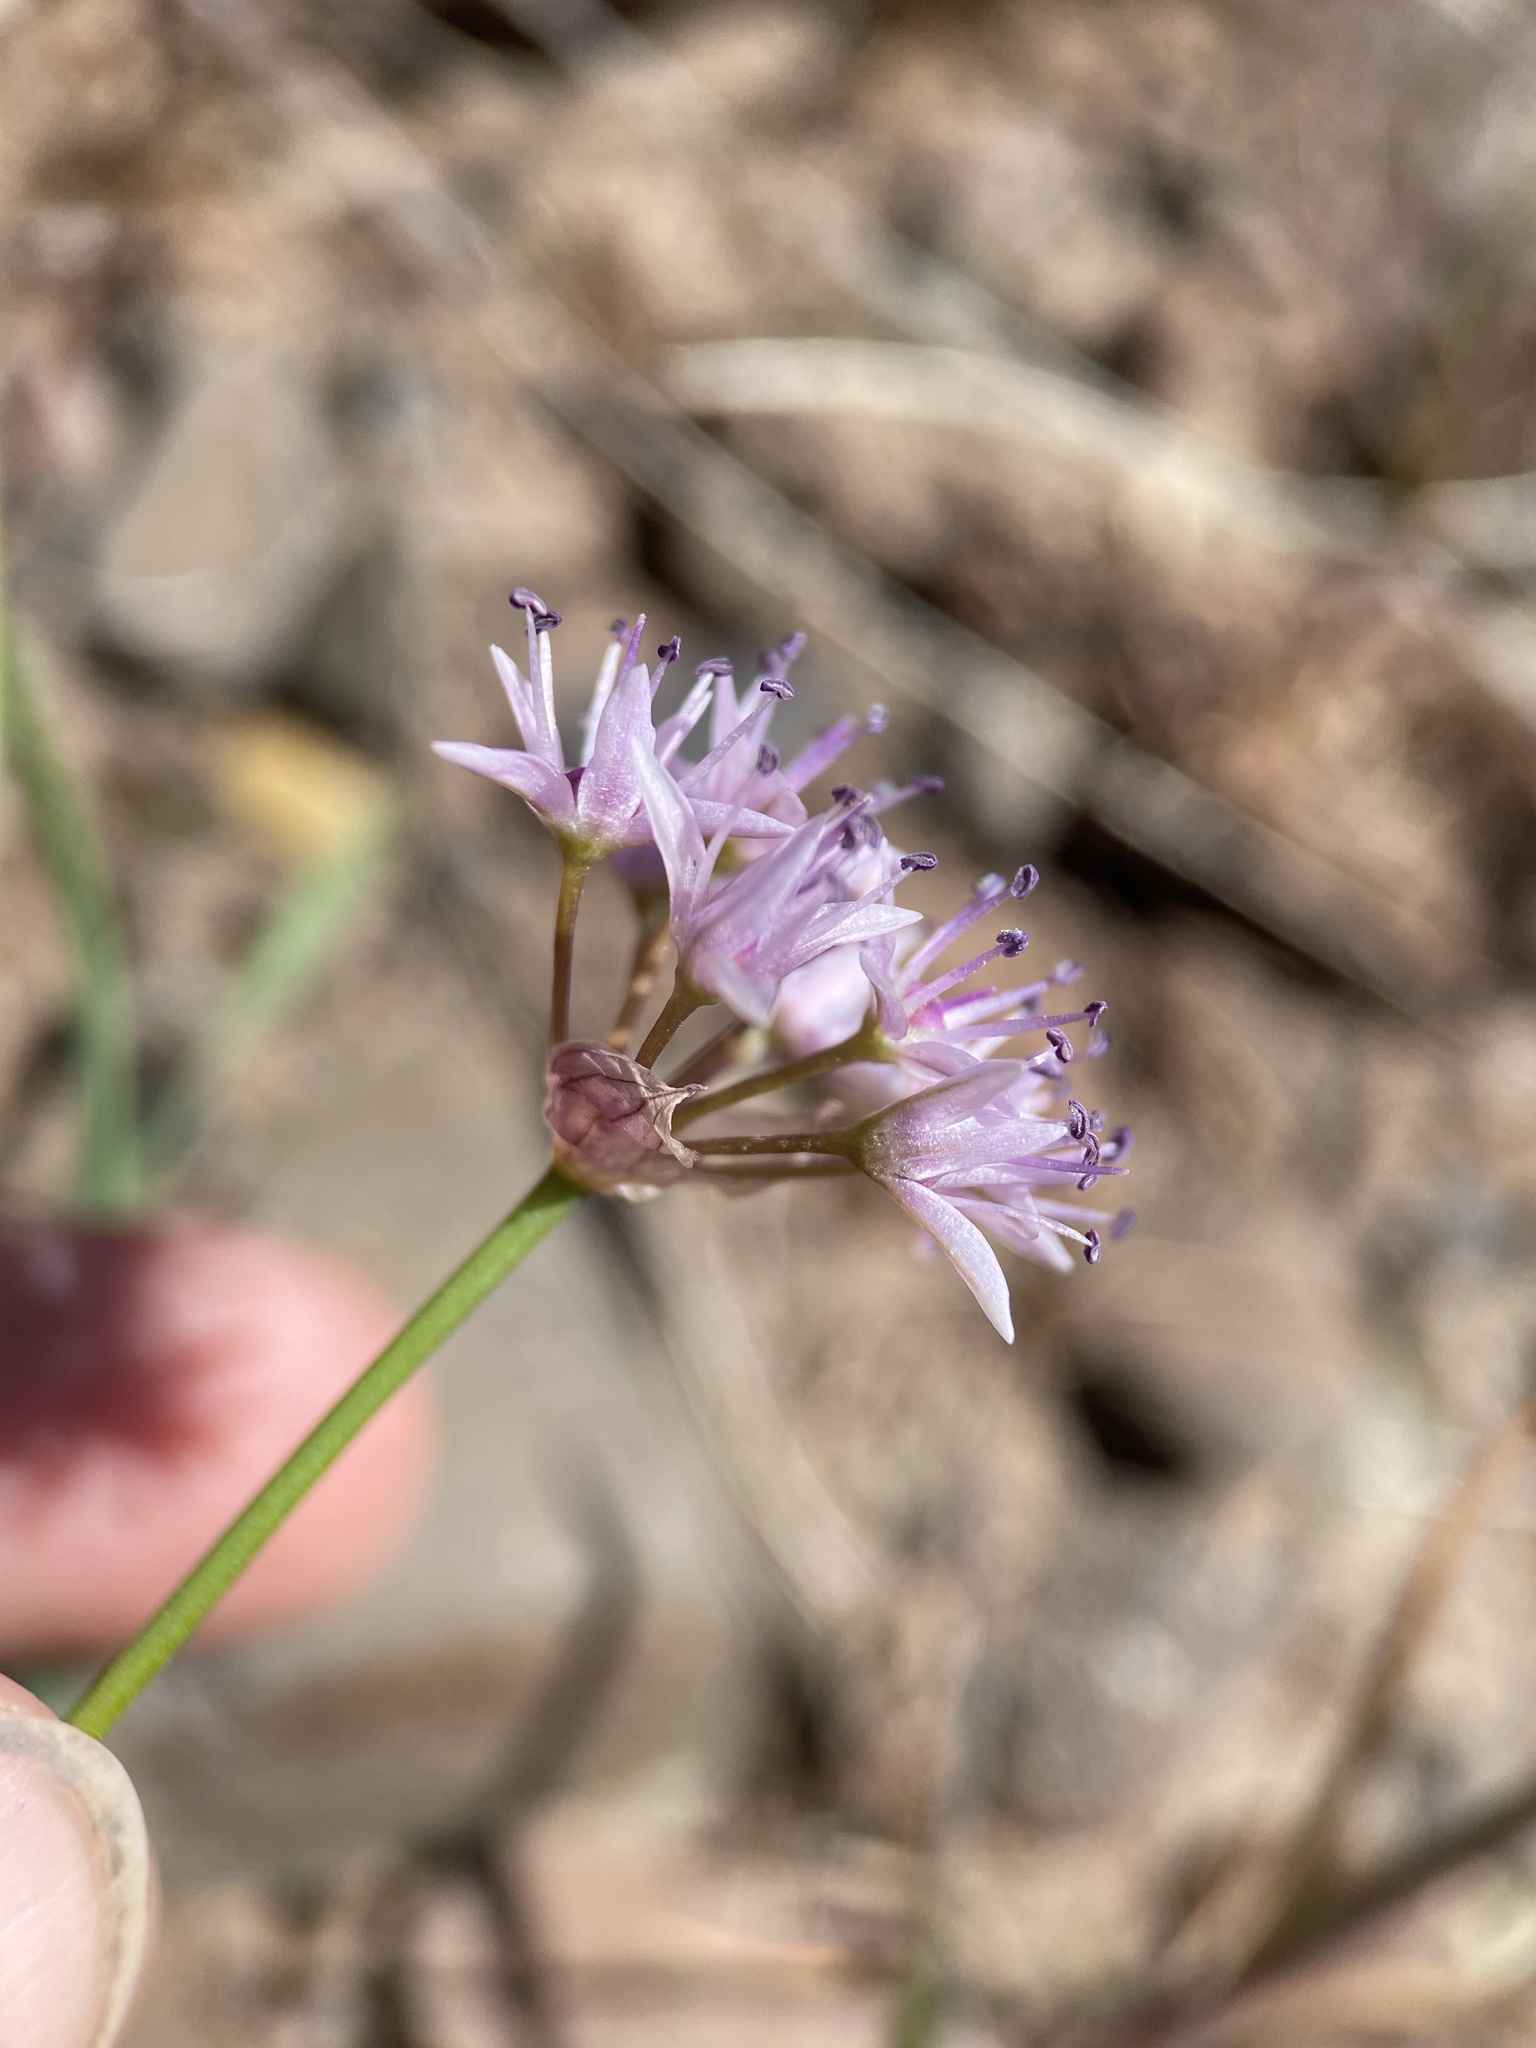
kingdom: Plantae
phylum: Tracheophyta
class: Liliopsida
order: Asparagales
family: Amaryllidaceae
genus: Allium
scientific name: Allium macrum
